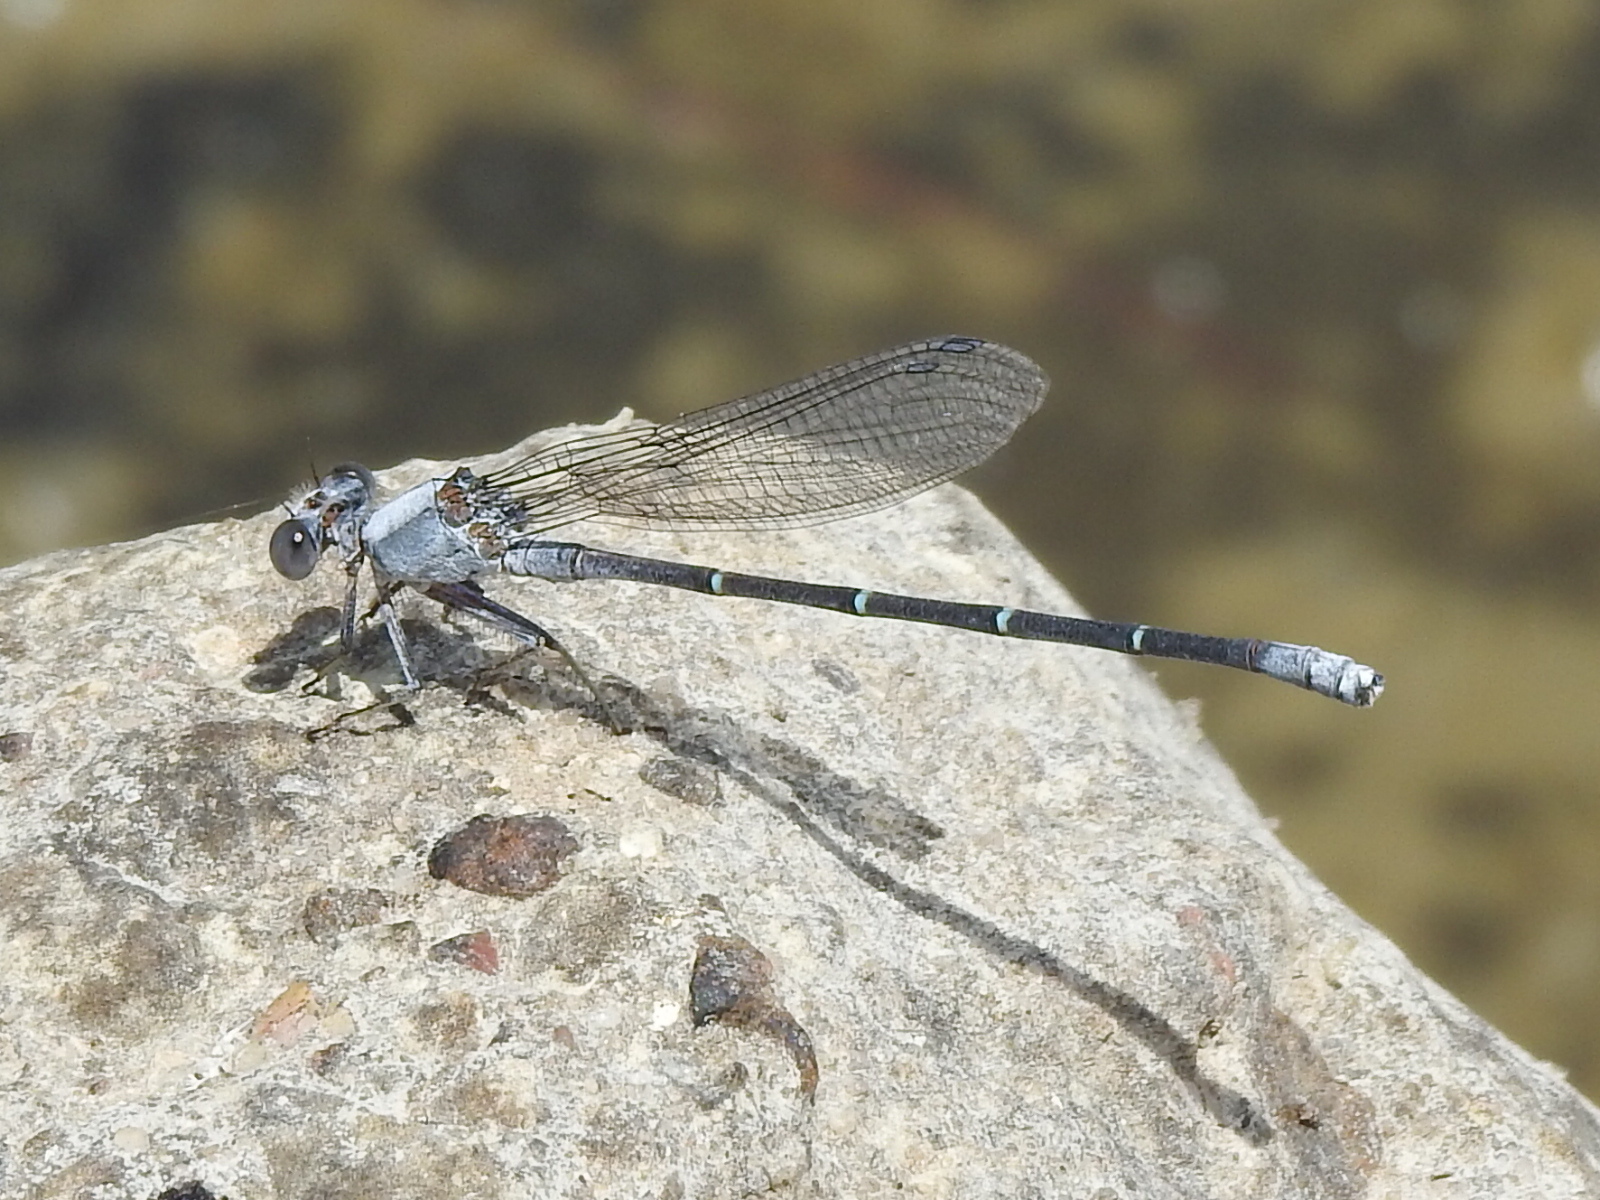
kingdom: Animalia
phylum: Arthropoda
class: Insecta
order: Odonata
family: Coenagrionidae
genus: Argia
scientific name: Argia moesta
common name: Powdered dancer
